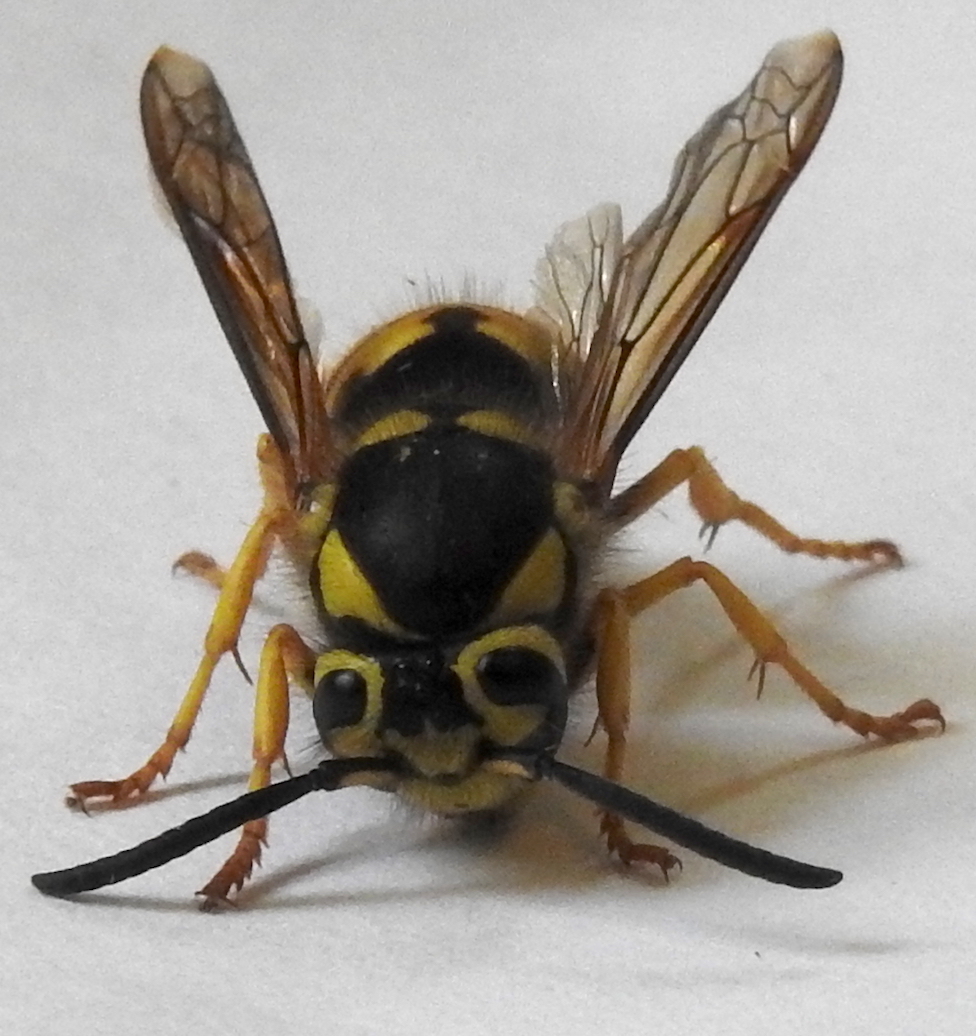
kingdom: Animalia
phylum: Arthropoda
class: Insecta
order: Hymenoptera
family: Vespidae
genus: Vespula
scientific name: Vespula pensylvanica
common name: Western yellowjacket
